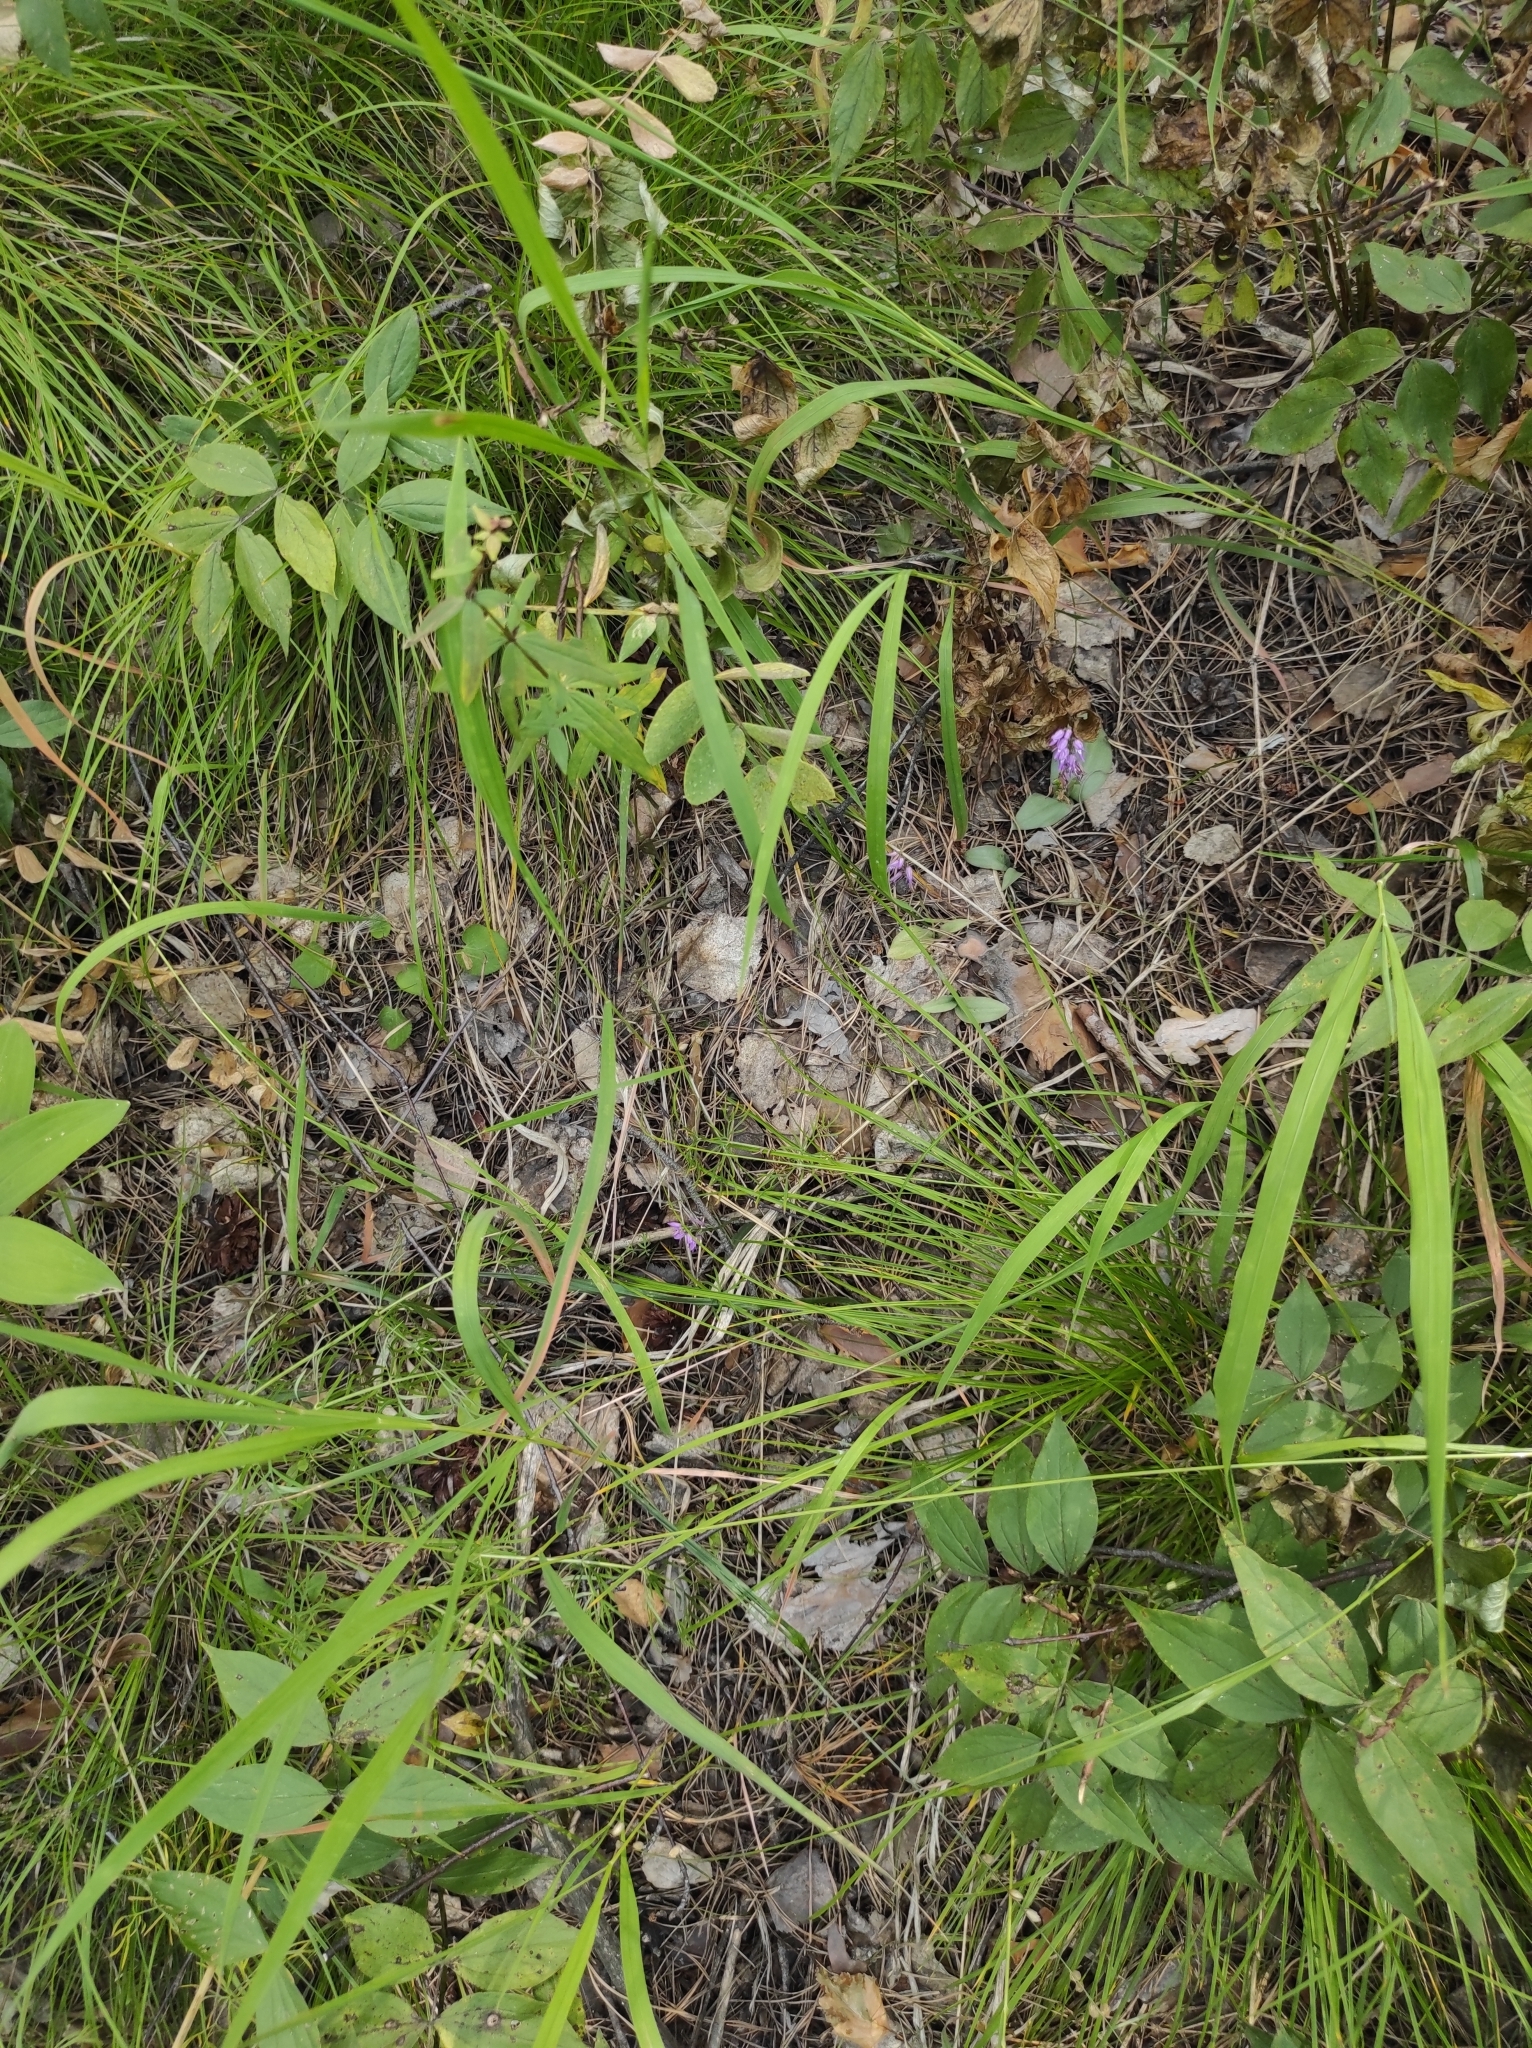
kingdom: Plantae
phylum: Tracheophyta
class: Liliopsida
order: Asparagales
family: Orchidaceae
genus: Hemipilia
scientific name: Hemipilia cucullata
